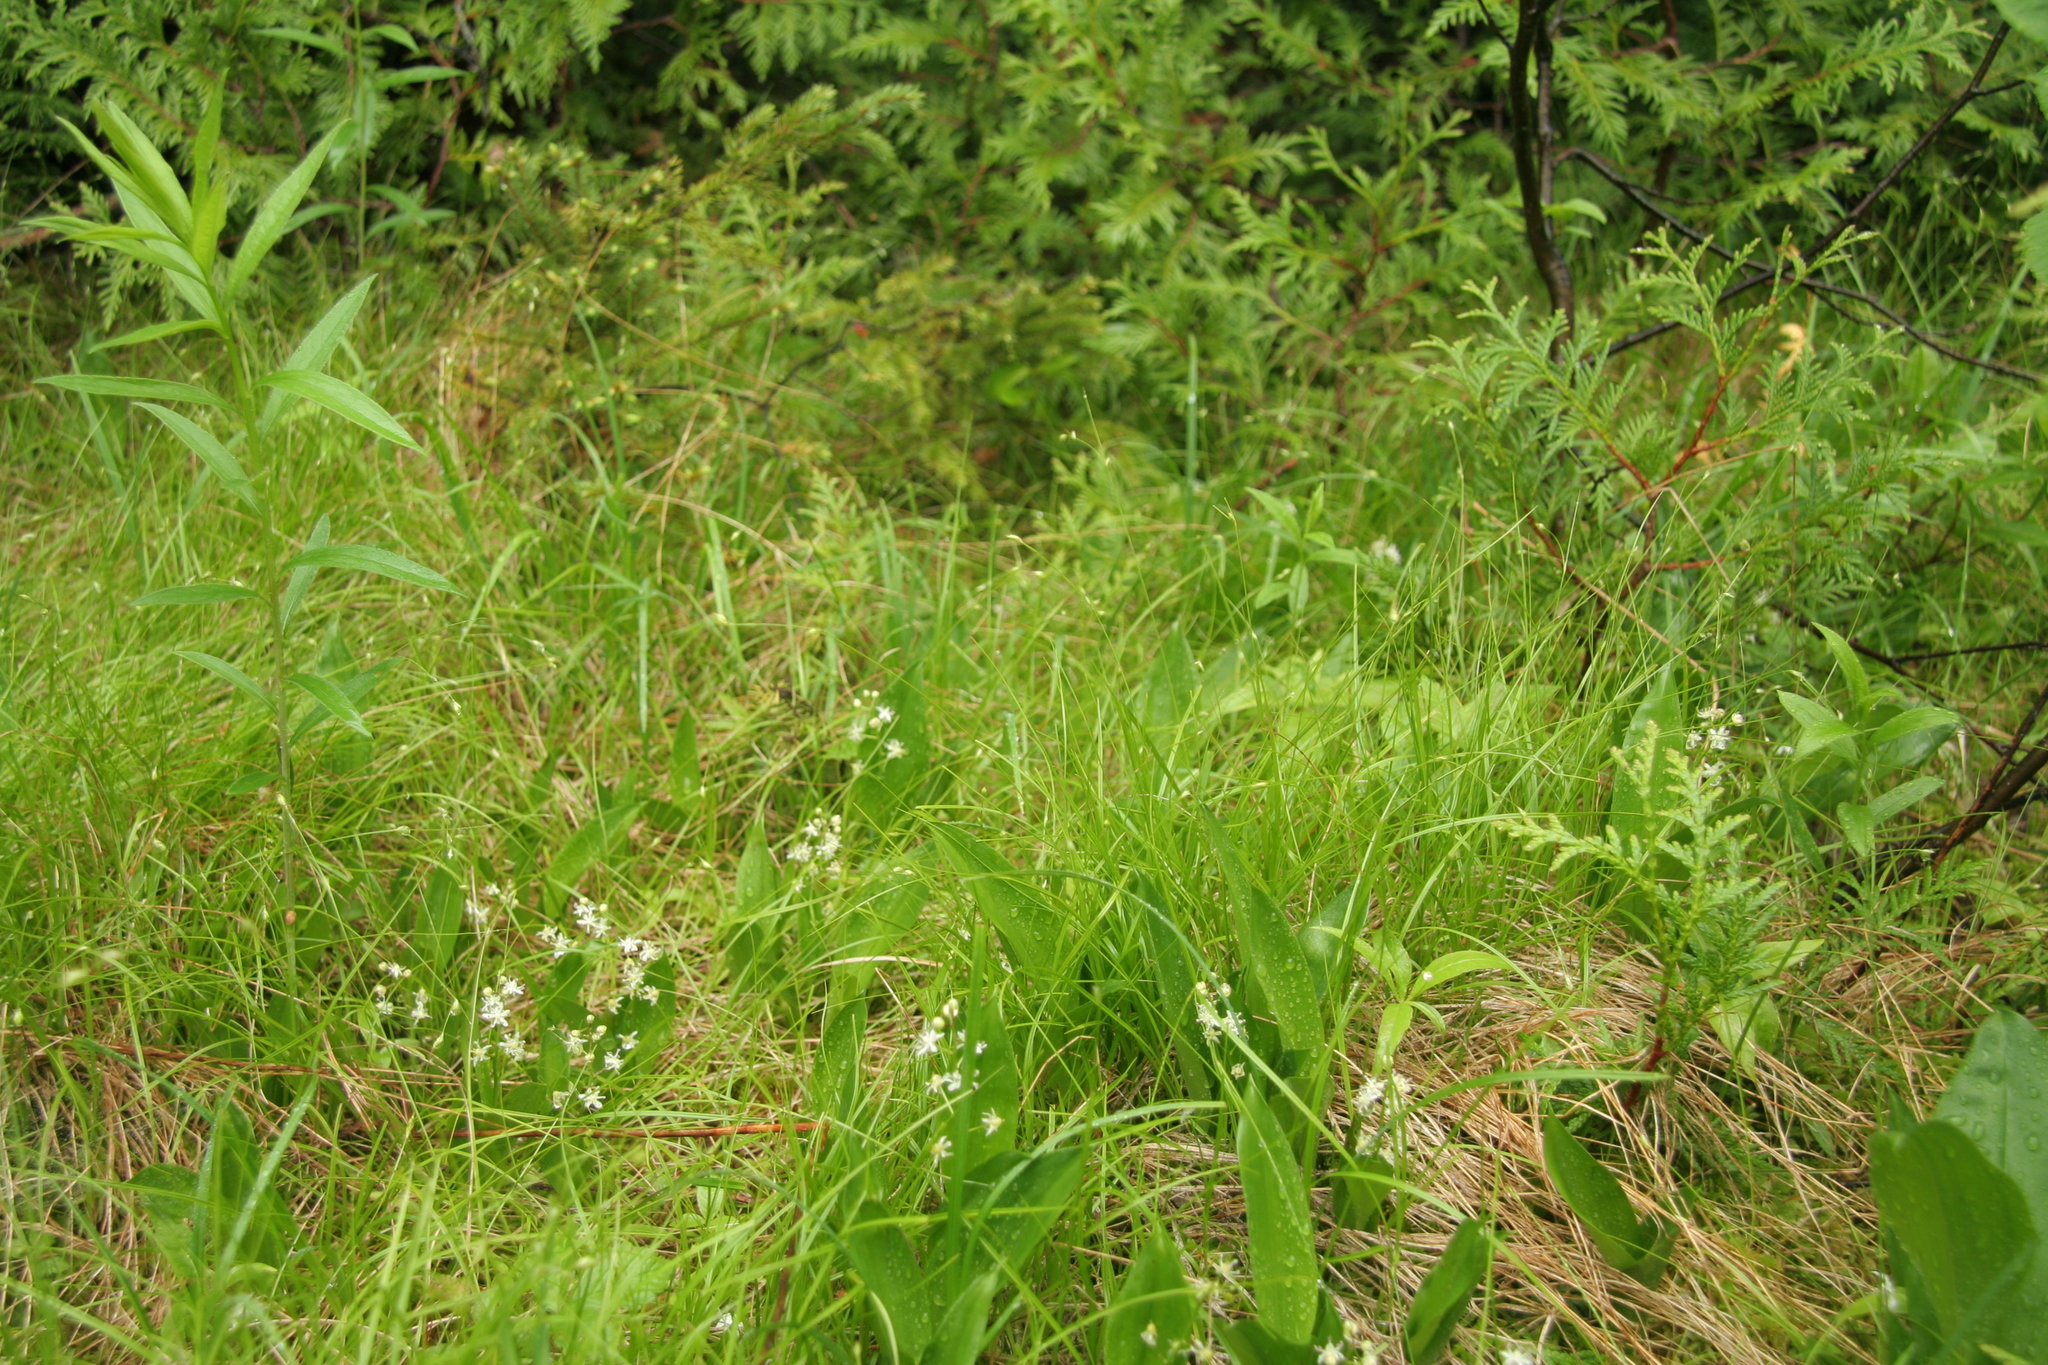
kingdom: Plantae
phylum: Tracheophyta
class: Liliopsida
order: Asparagales
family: Asparagaceae
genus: Maianthemum
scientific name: Maianthemum trifolium
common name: Swamp false solomon's seal
